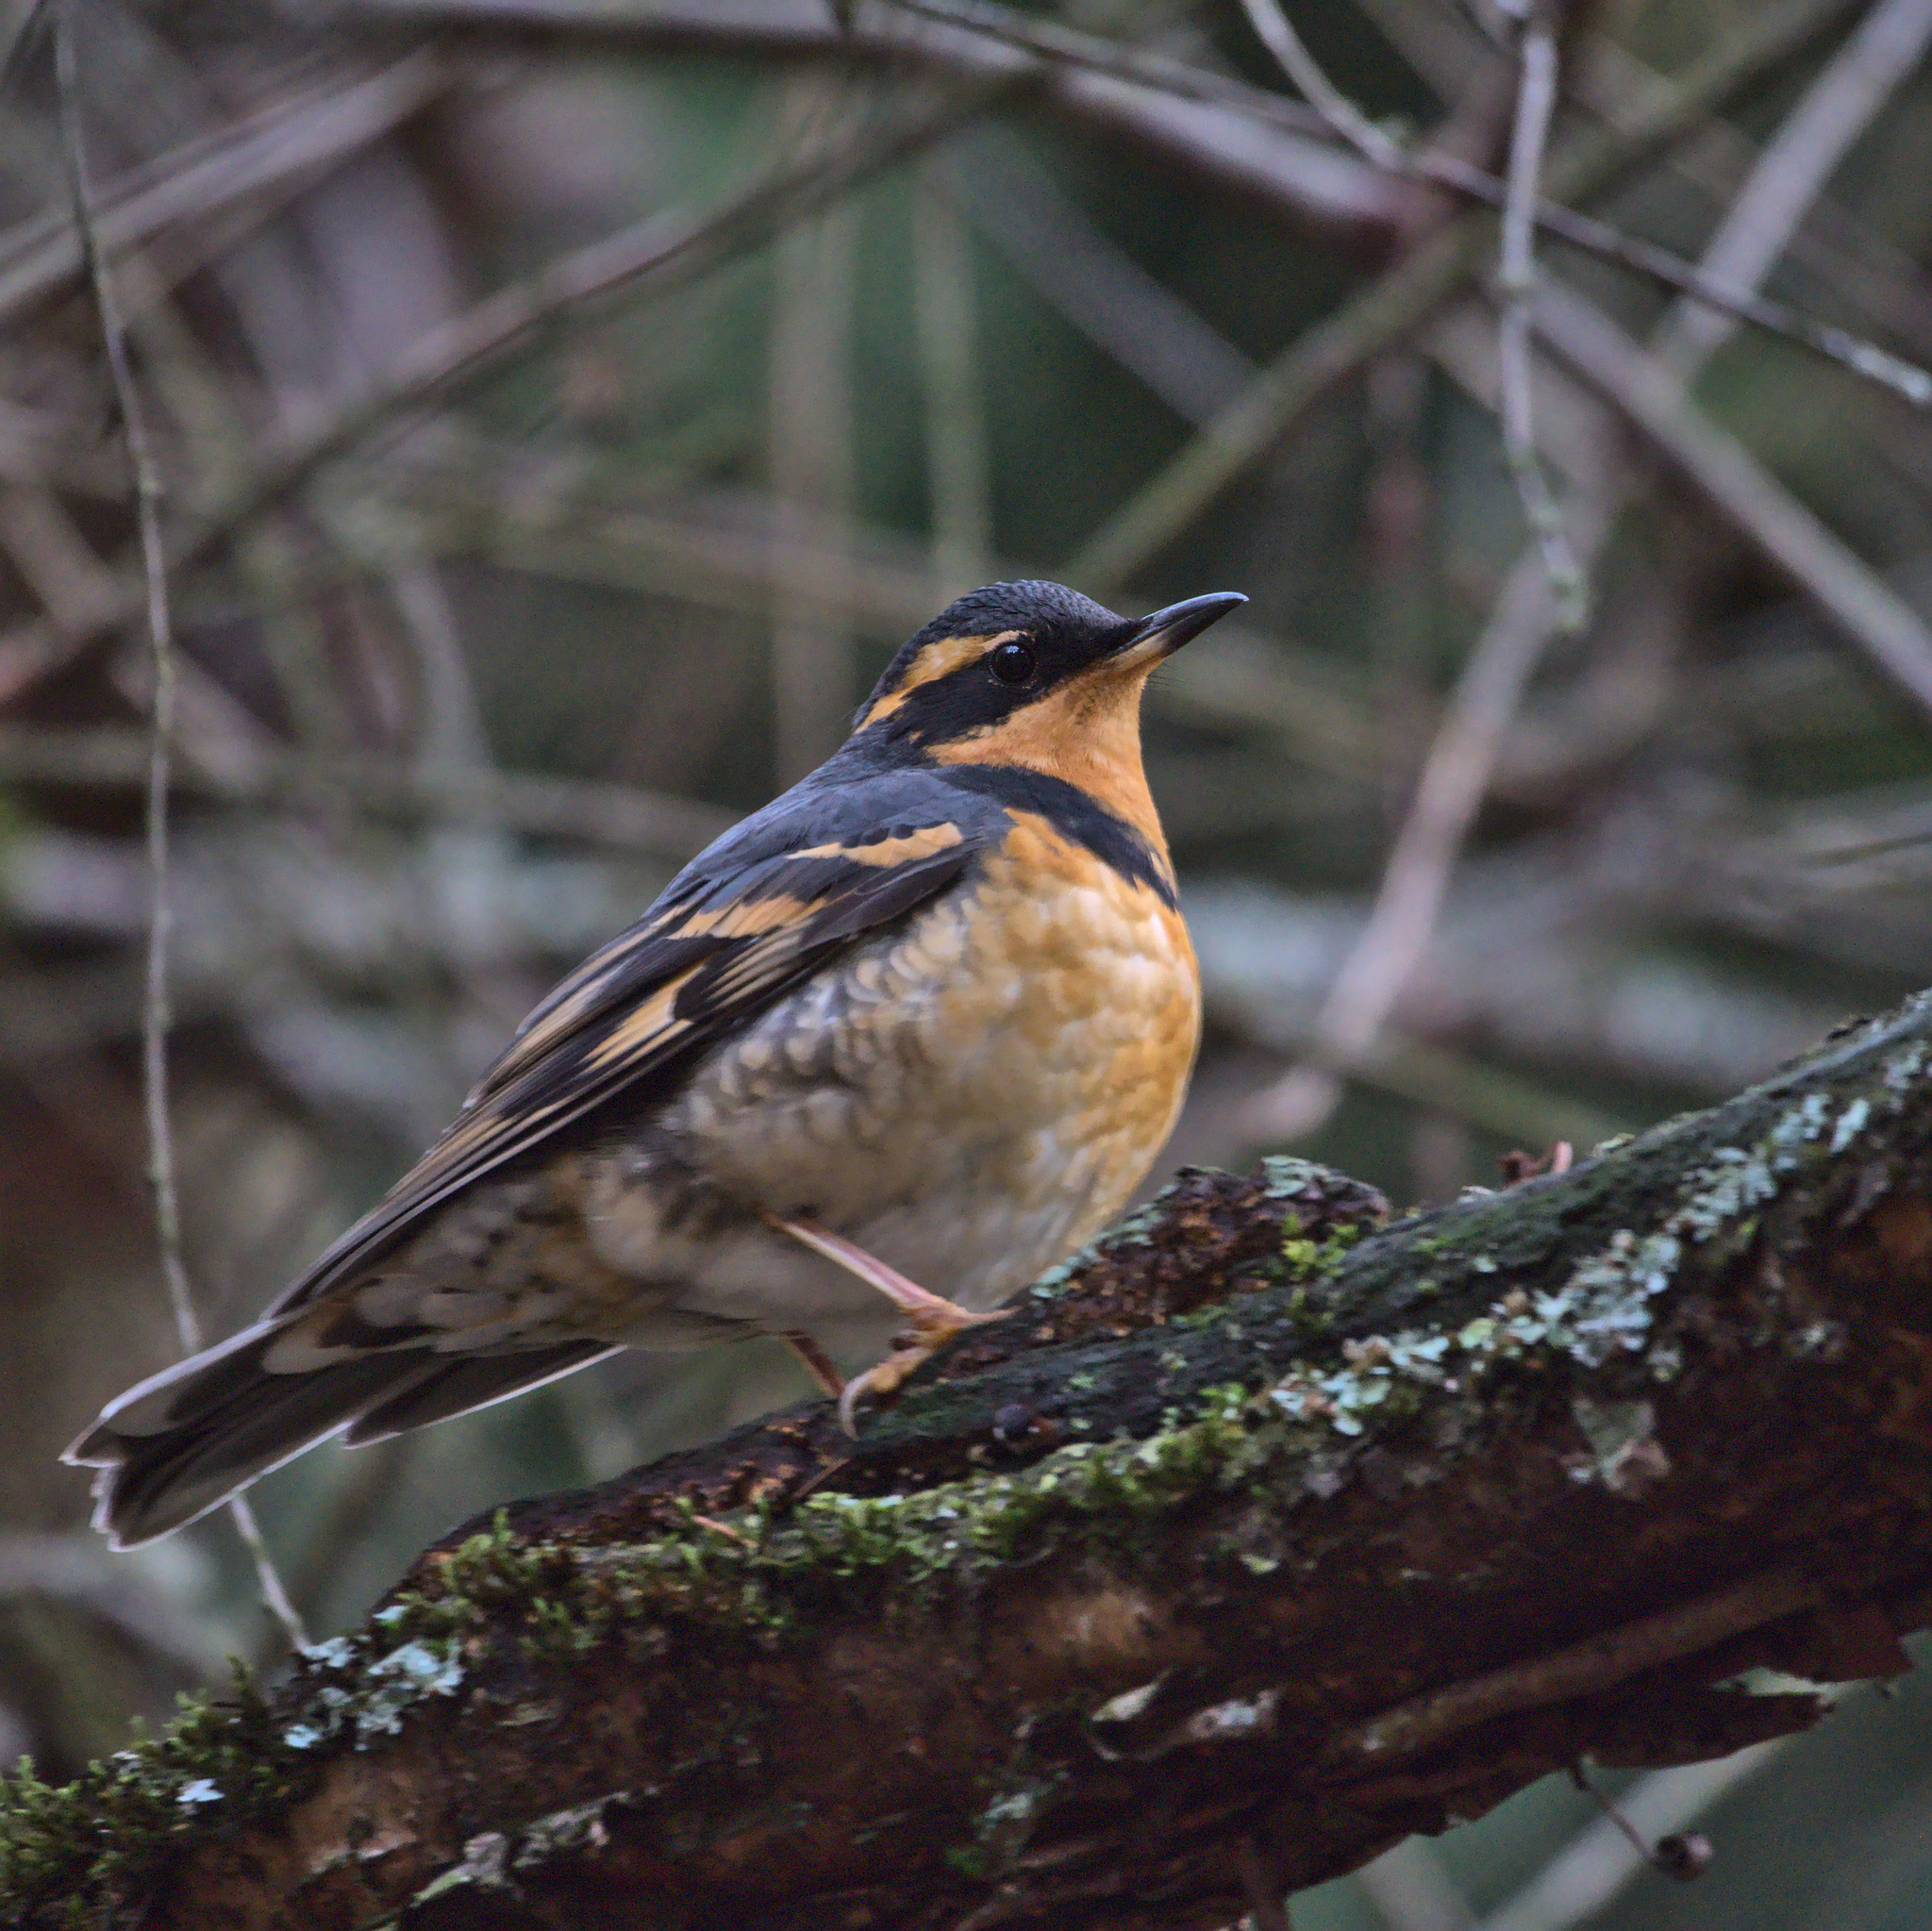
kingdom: Animalia
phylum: Chordata
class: Aves
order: Passeriformes
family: Turdidae
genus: Ixoreus
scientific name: Ixoreus naevius
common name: Varied thrush
